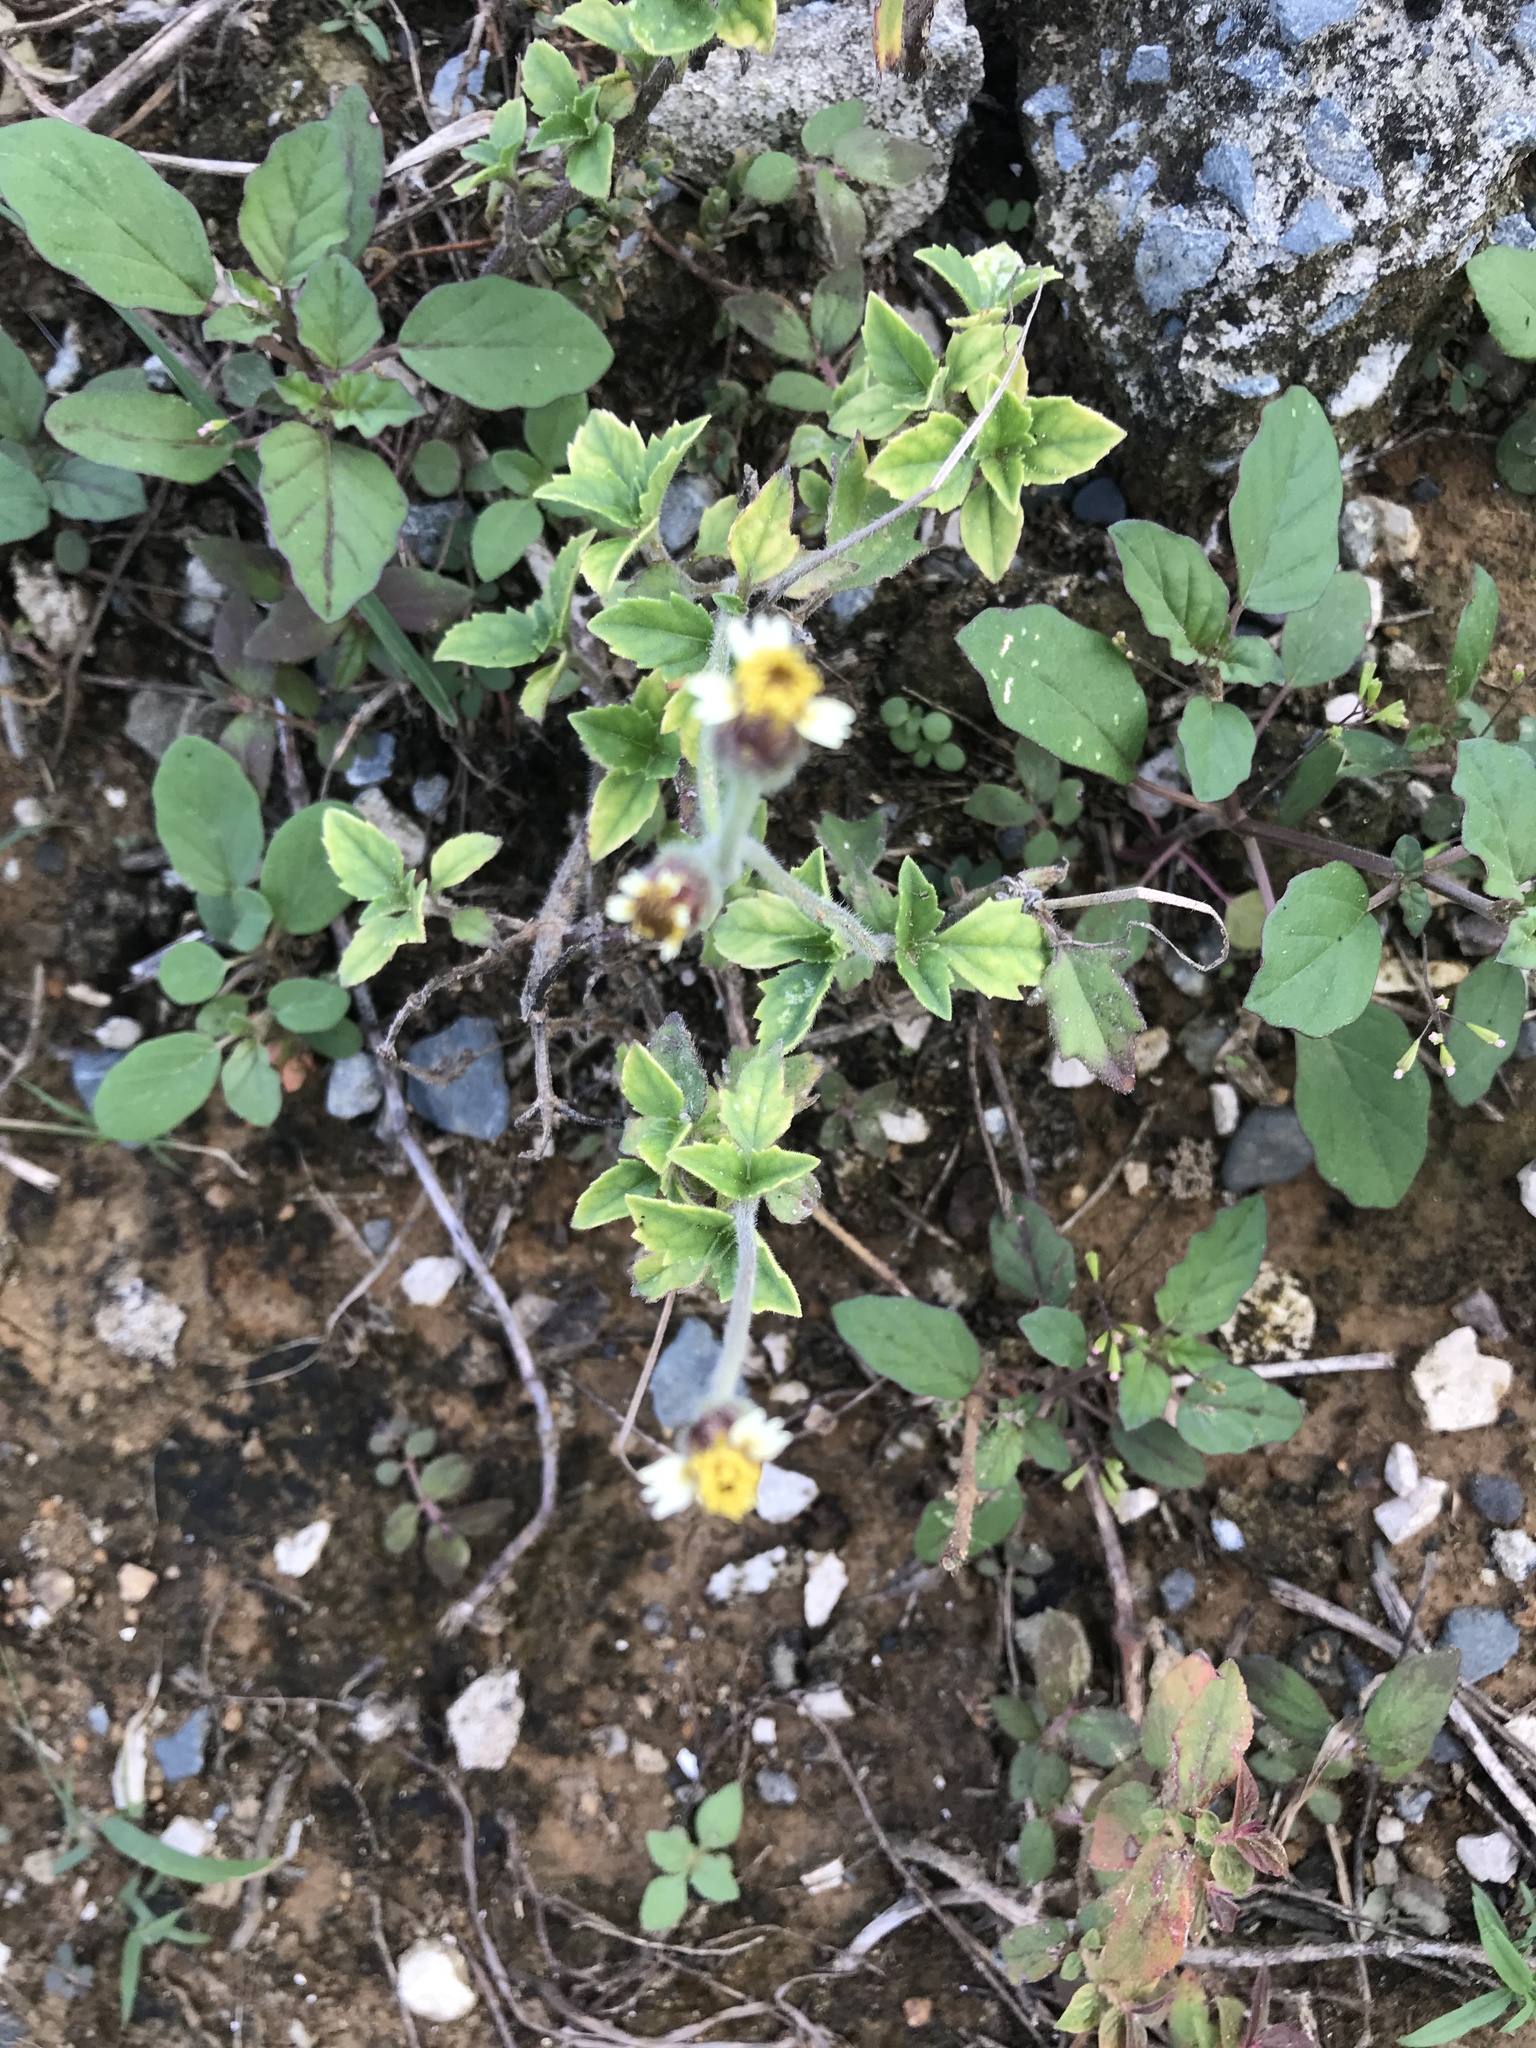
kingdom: Plantae
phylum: Tracheophyta
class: Magnoliopsida
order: Asterales
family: Asteraceae
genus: Bidens
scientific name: Bidens alba
